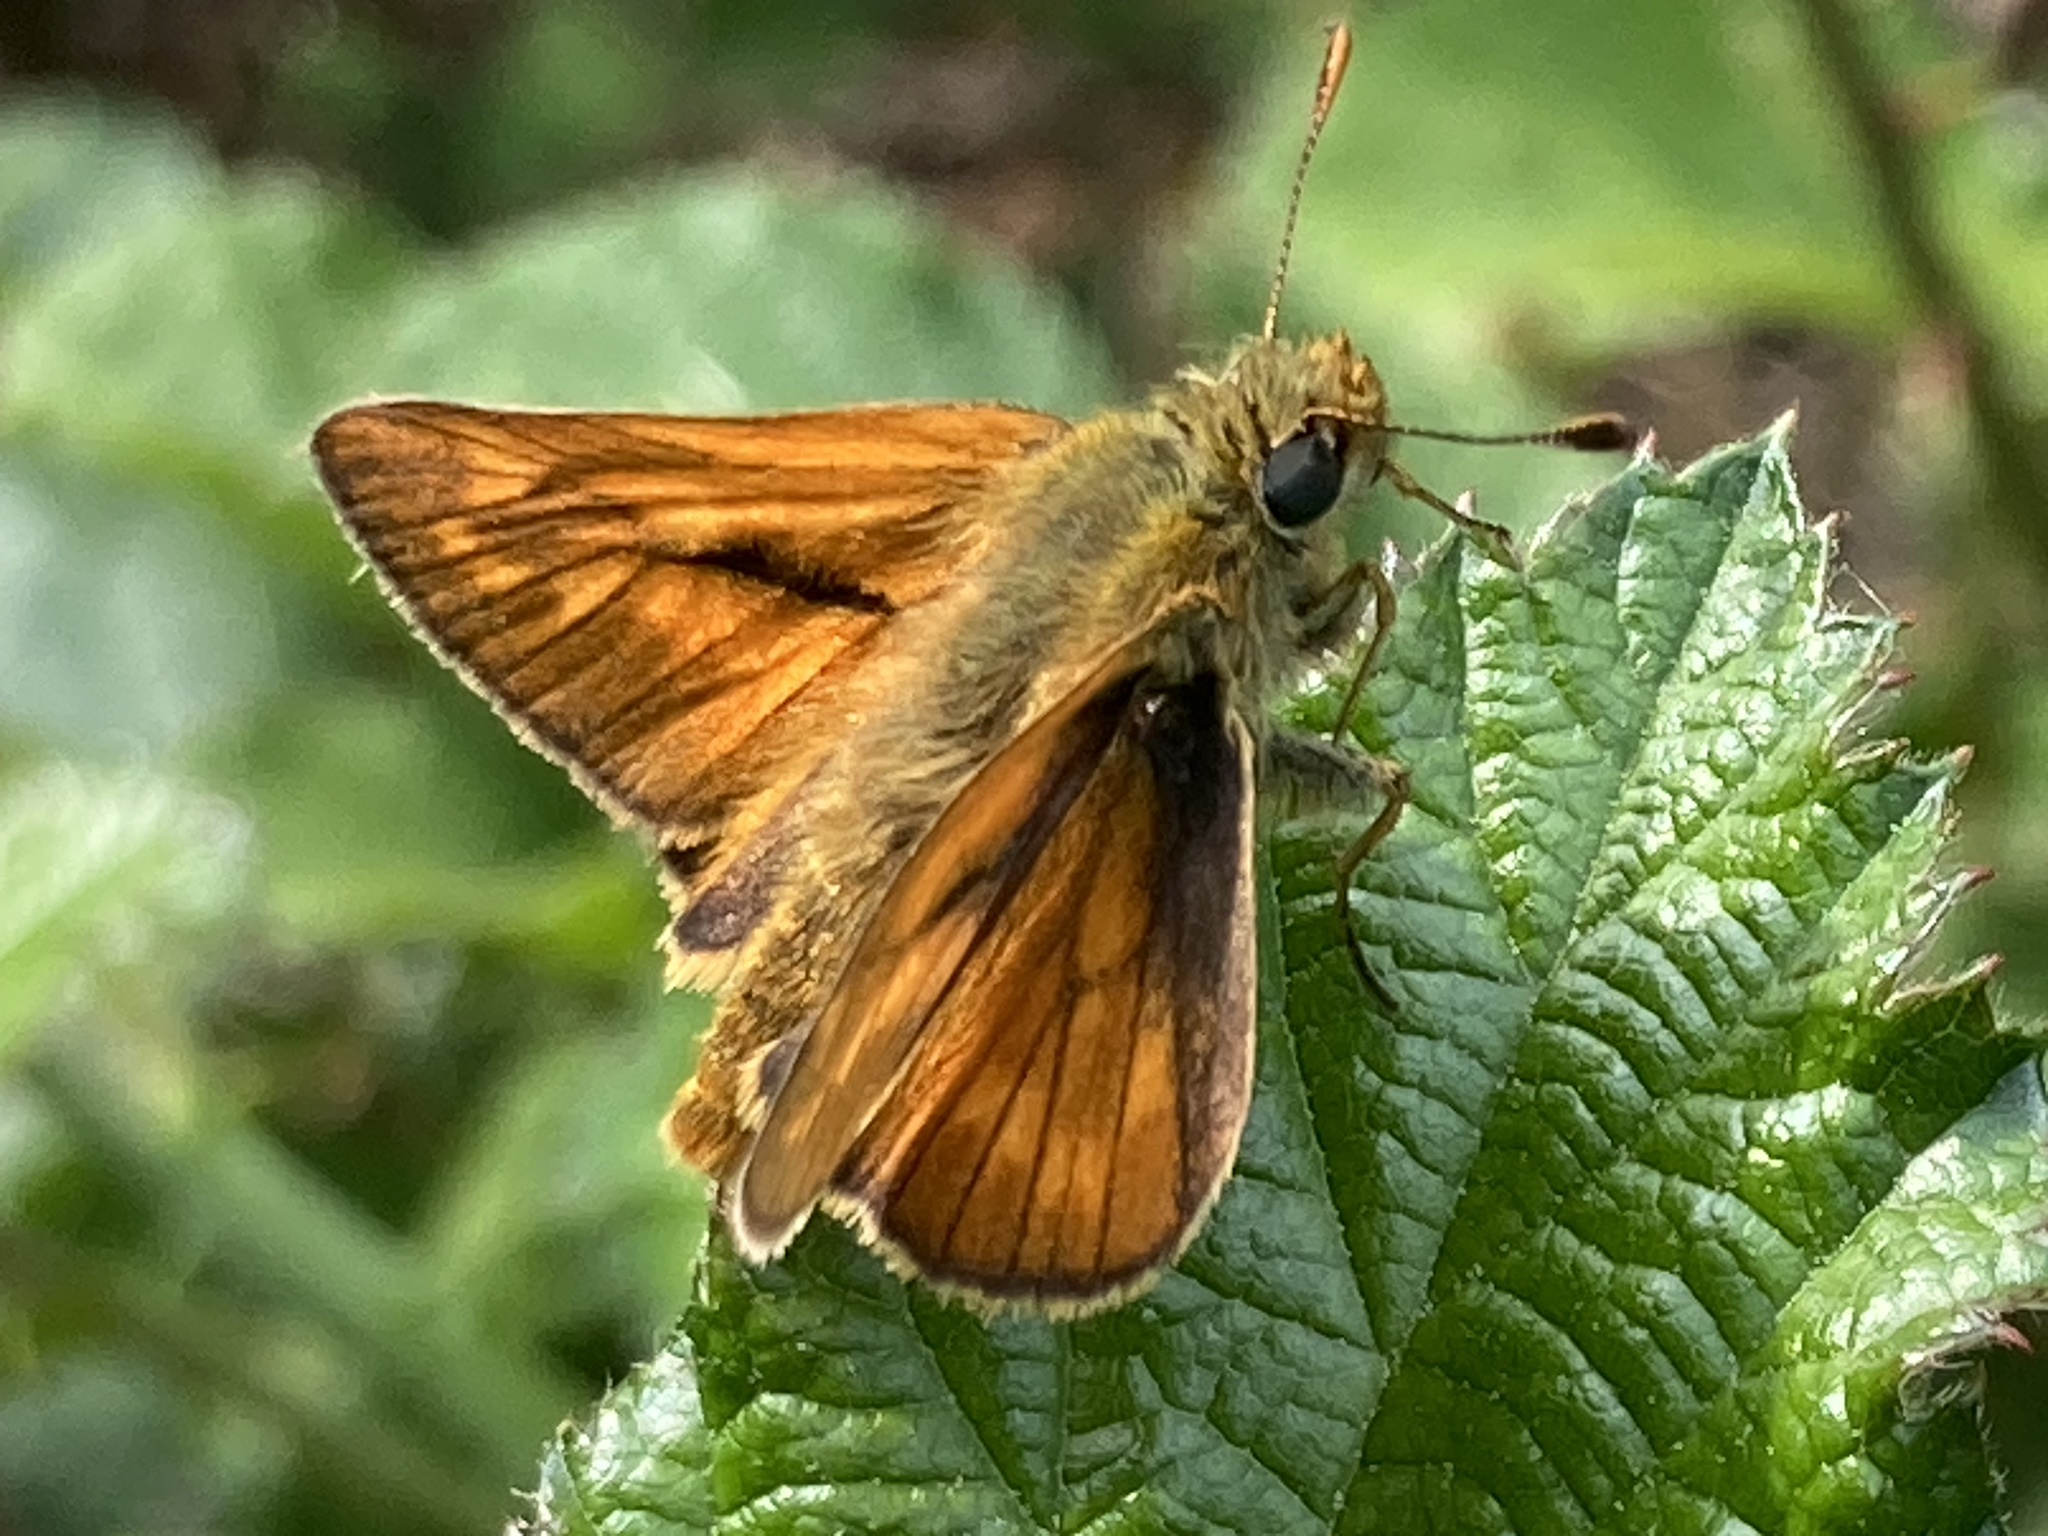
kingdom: Animalia
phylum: Arthropoda
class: Insecta
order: Lepidoptera
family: Hesperiidae
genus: Ochlodes
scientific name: Ochlodes venata
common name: Large skipper
